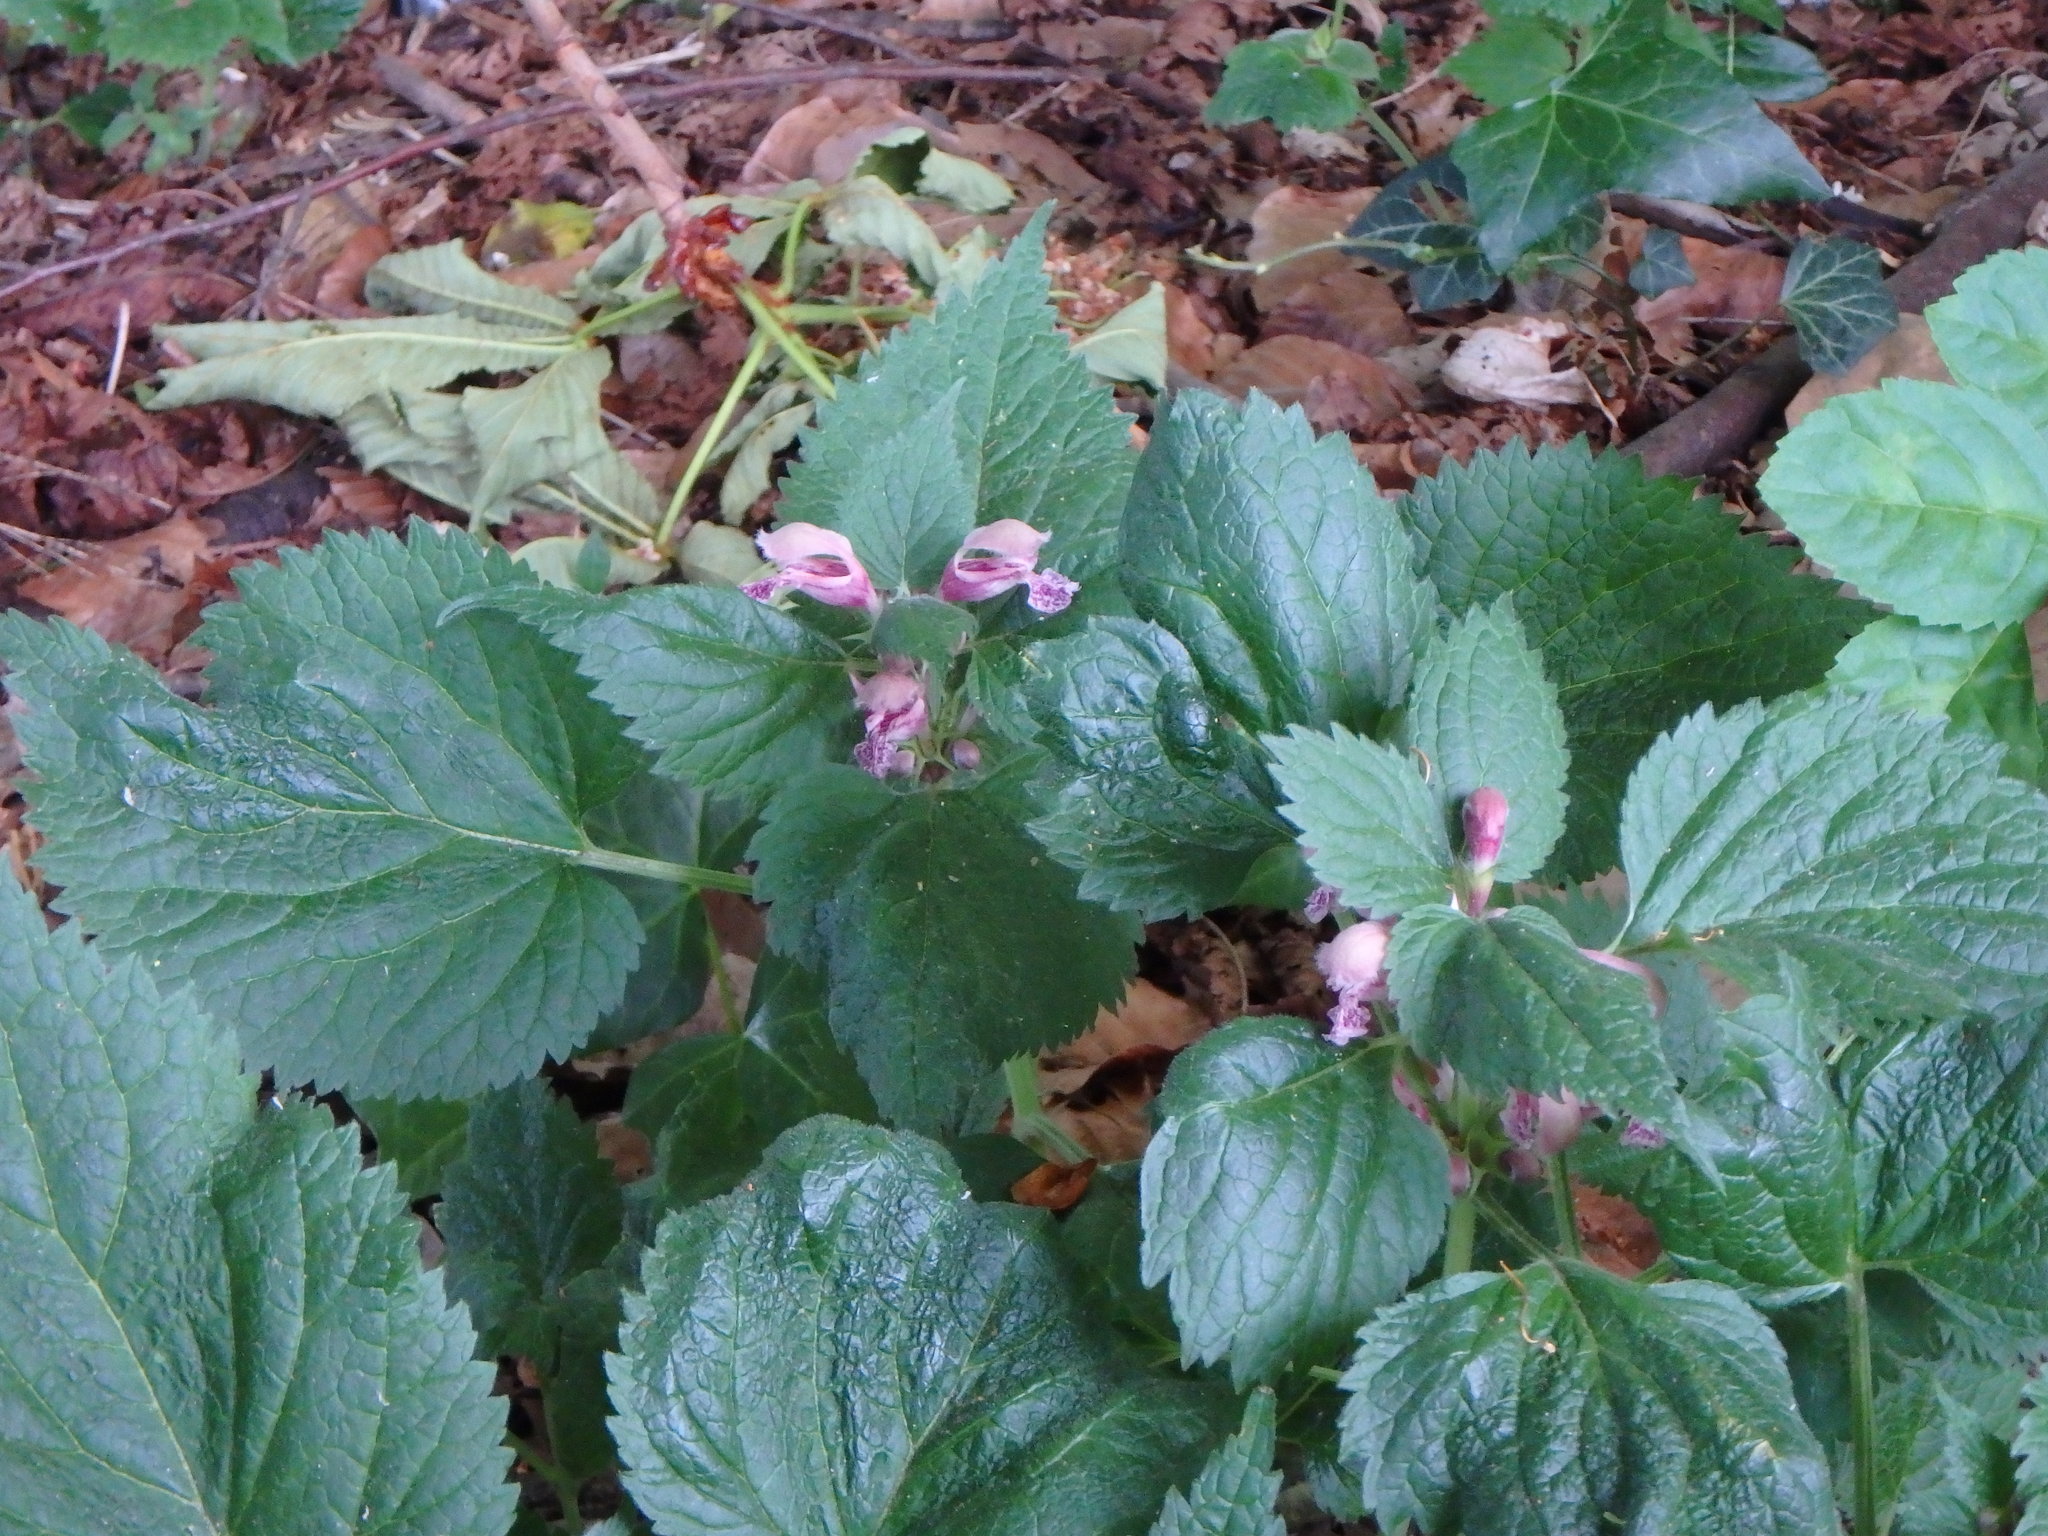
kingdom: Plantae
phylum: Tracheophyta
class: Magnoliopsida
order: Lamiales
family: Lamiaceae
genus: Lamium
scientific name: Lamium orvala
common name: Balm-leaved archangel
